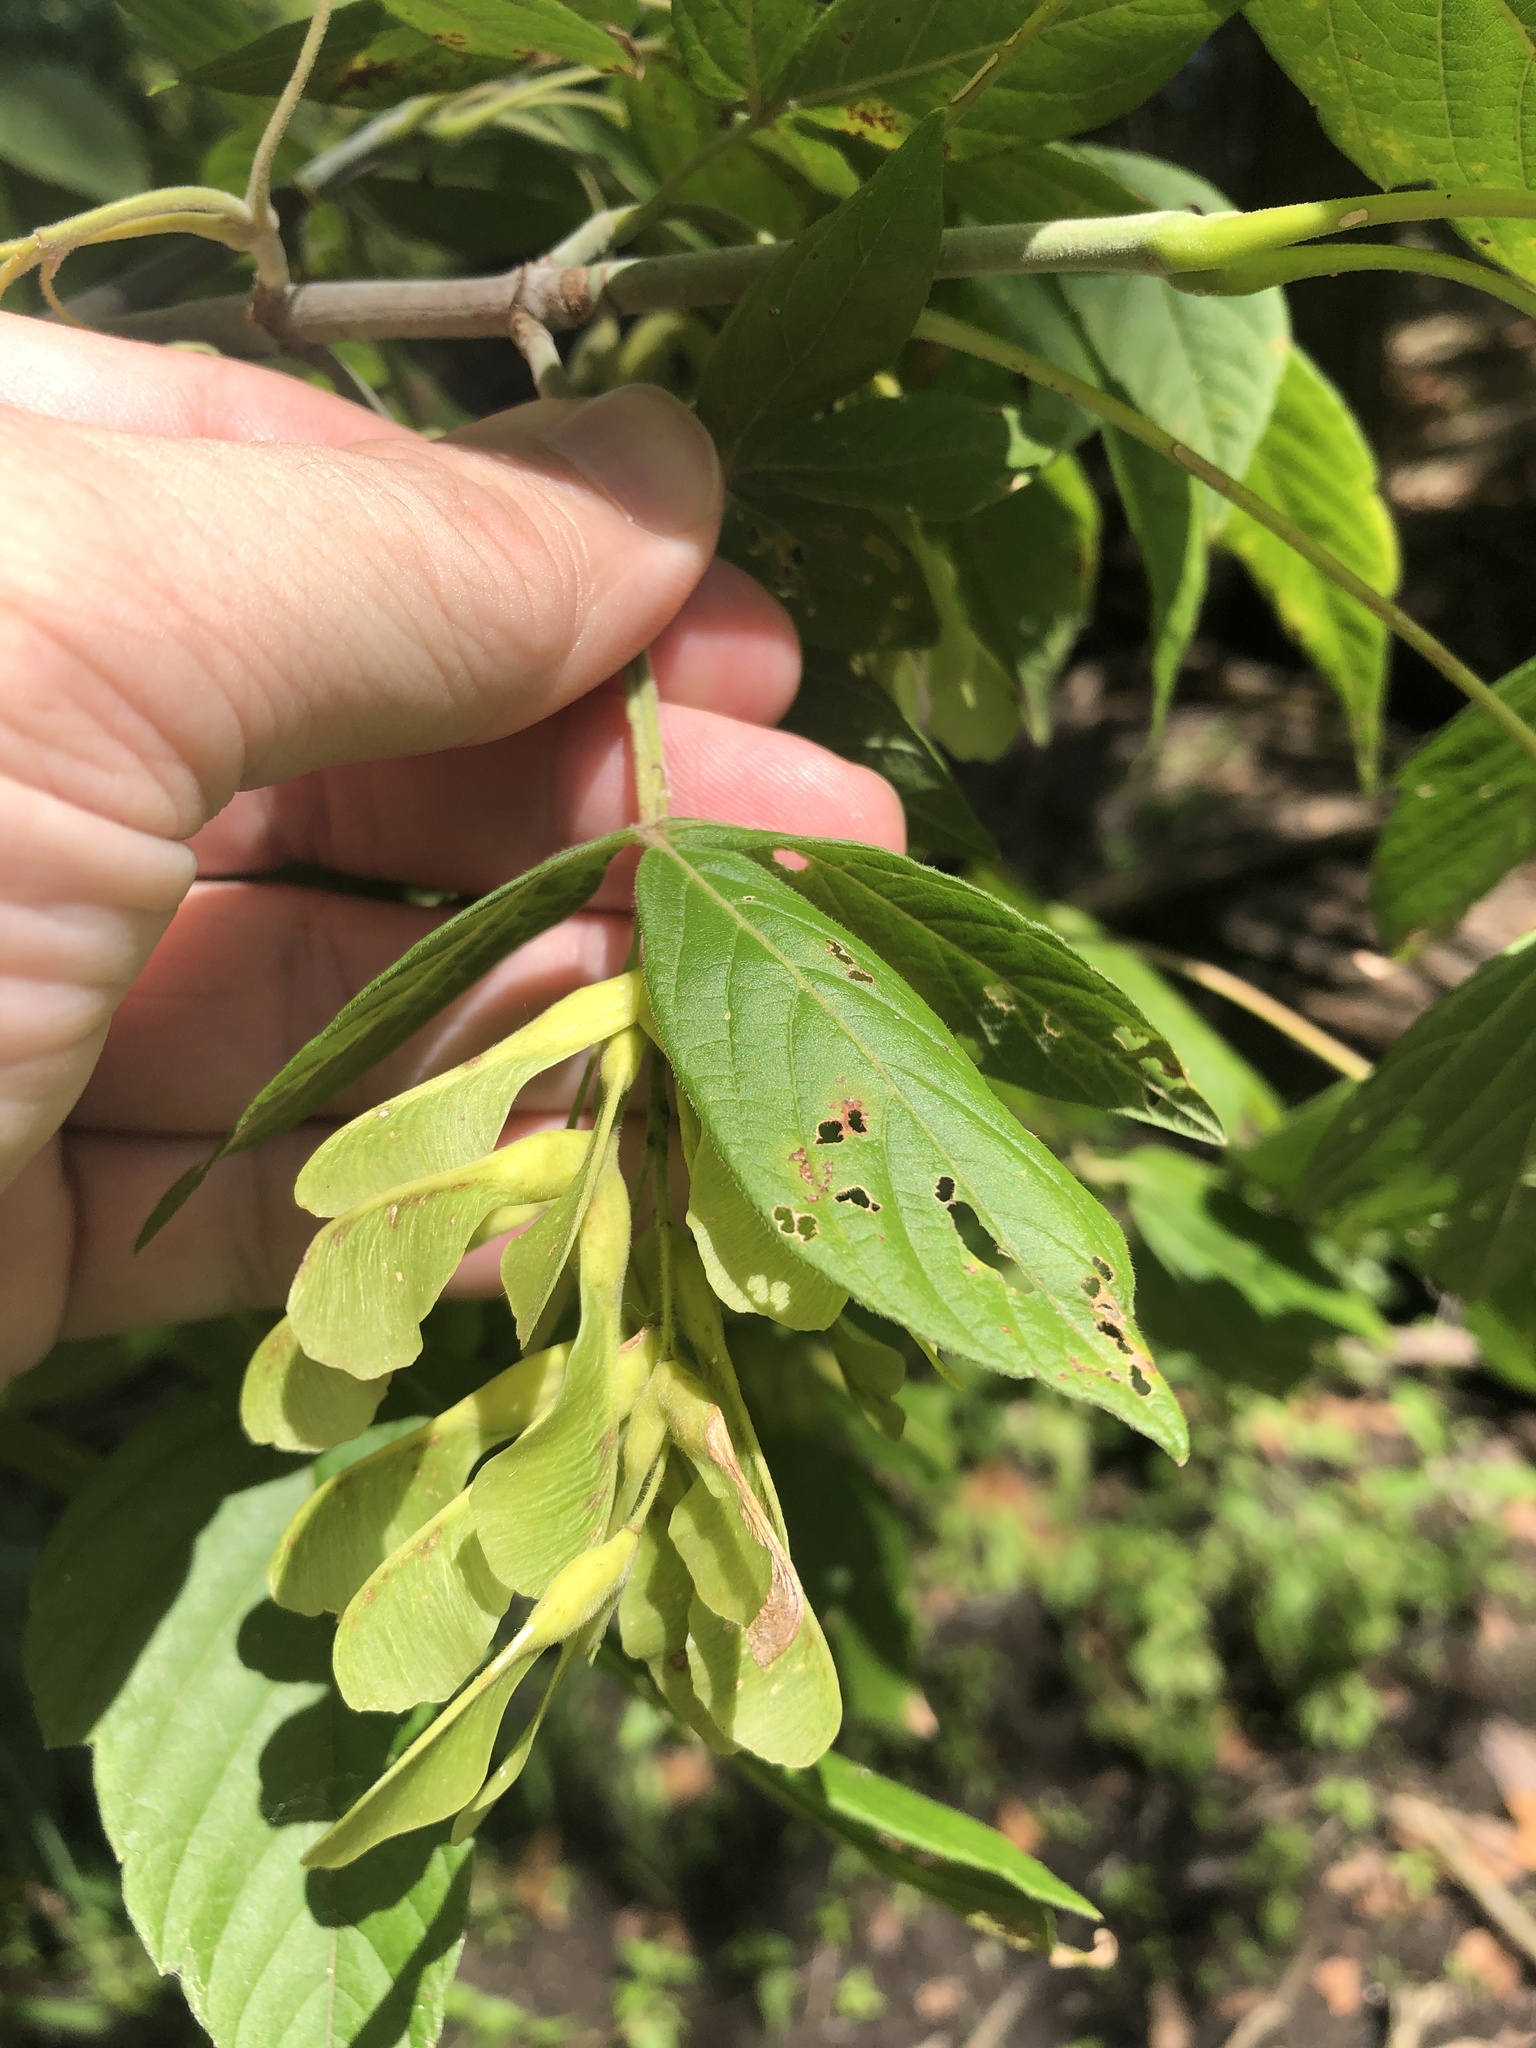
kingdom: Plantae
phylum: Tracheophyta
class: Magnoliopsida
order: Sapindales
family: Sapindaceae
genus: Acer
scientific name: Acer negundo
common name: Ashleaf maple
